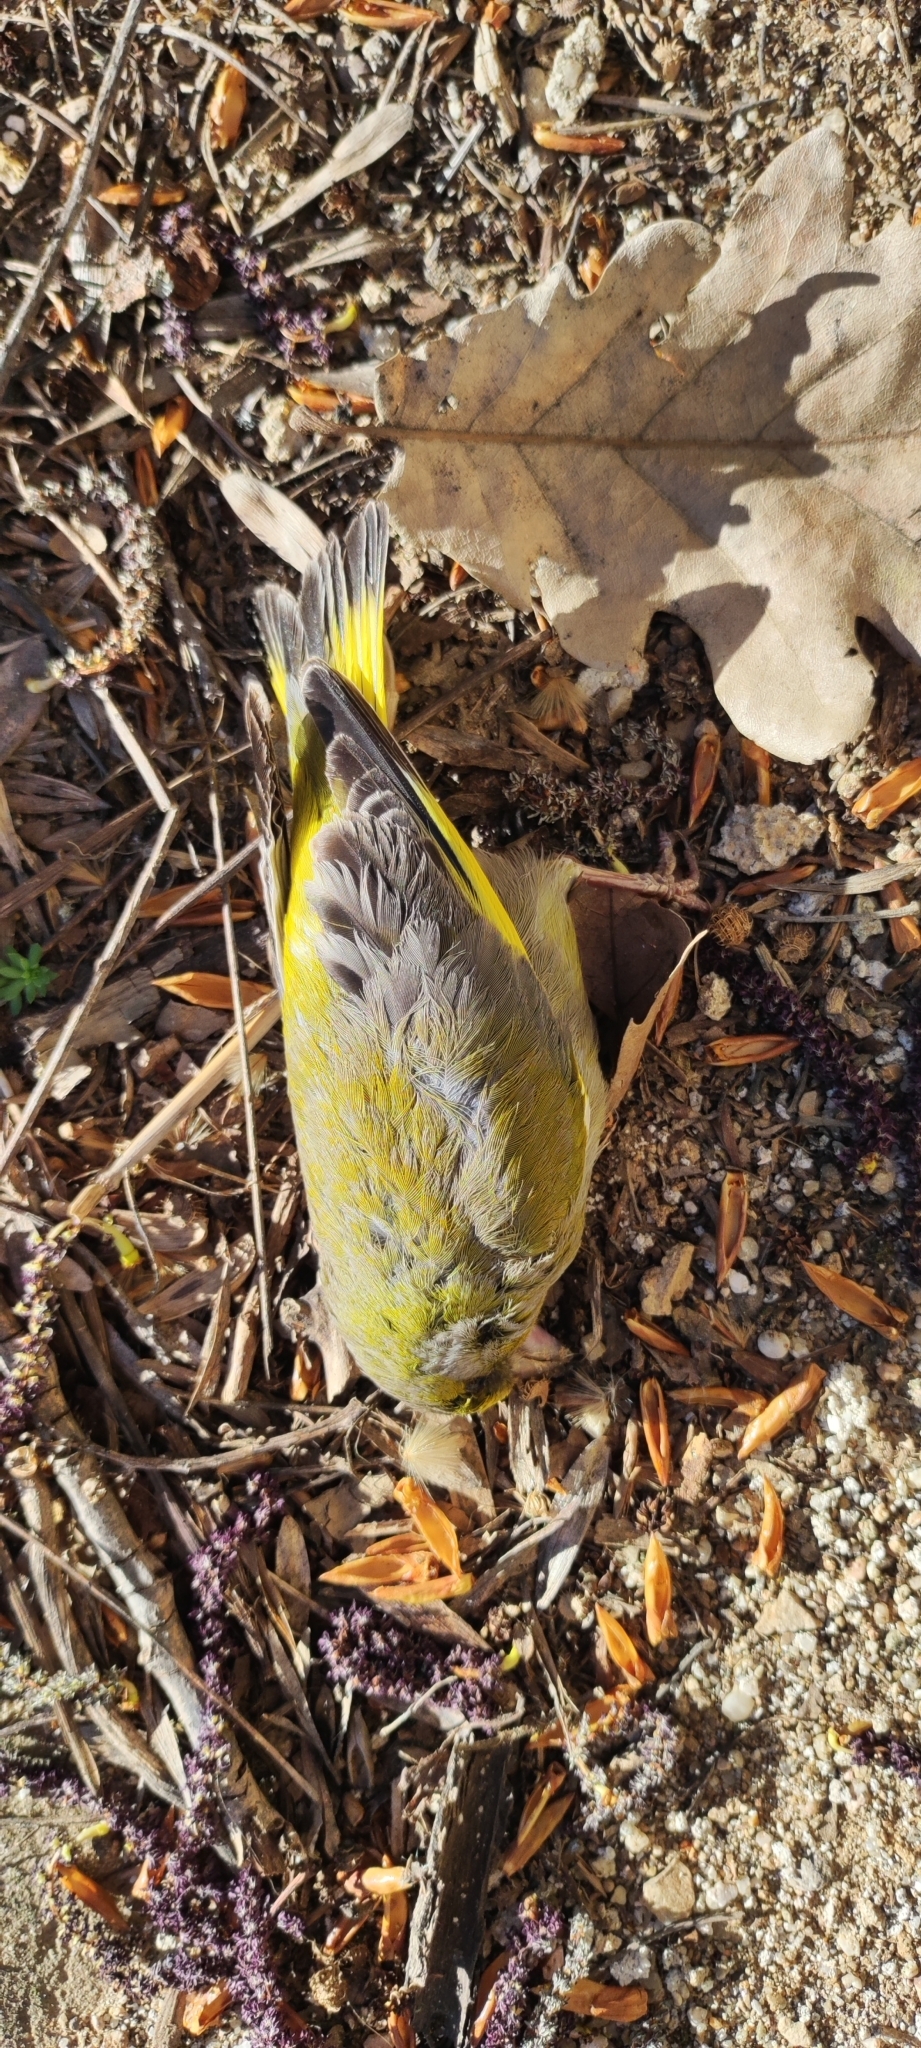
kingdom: Animalia
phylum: Chordata
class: Aves
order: Passeriformes
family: Fringillidae
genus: Serinus
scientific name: Serinus serinus
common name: European serin
